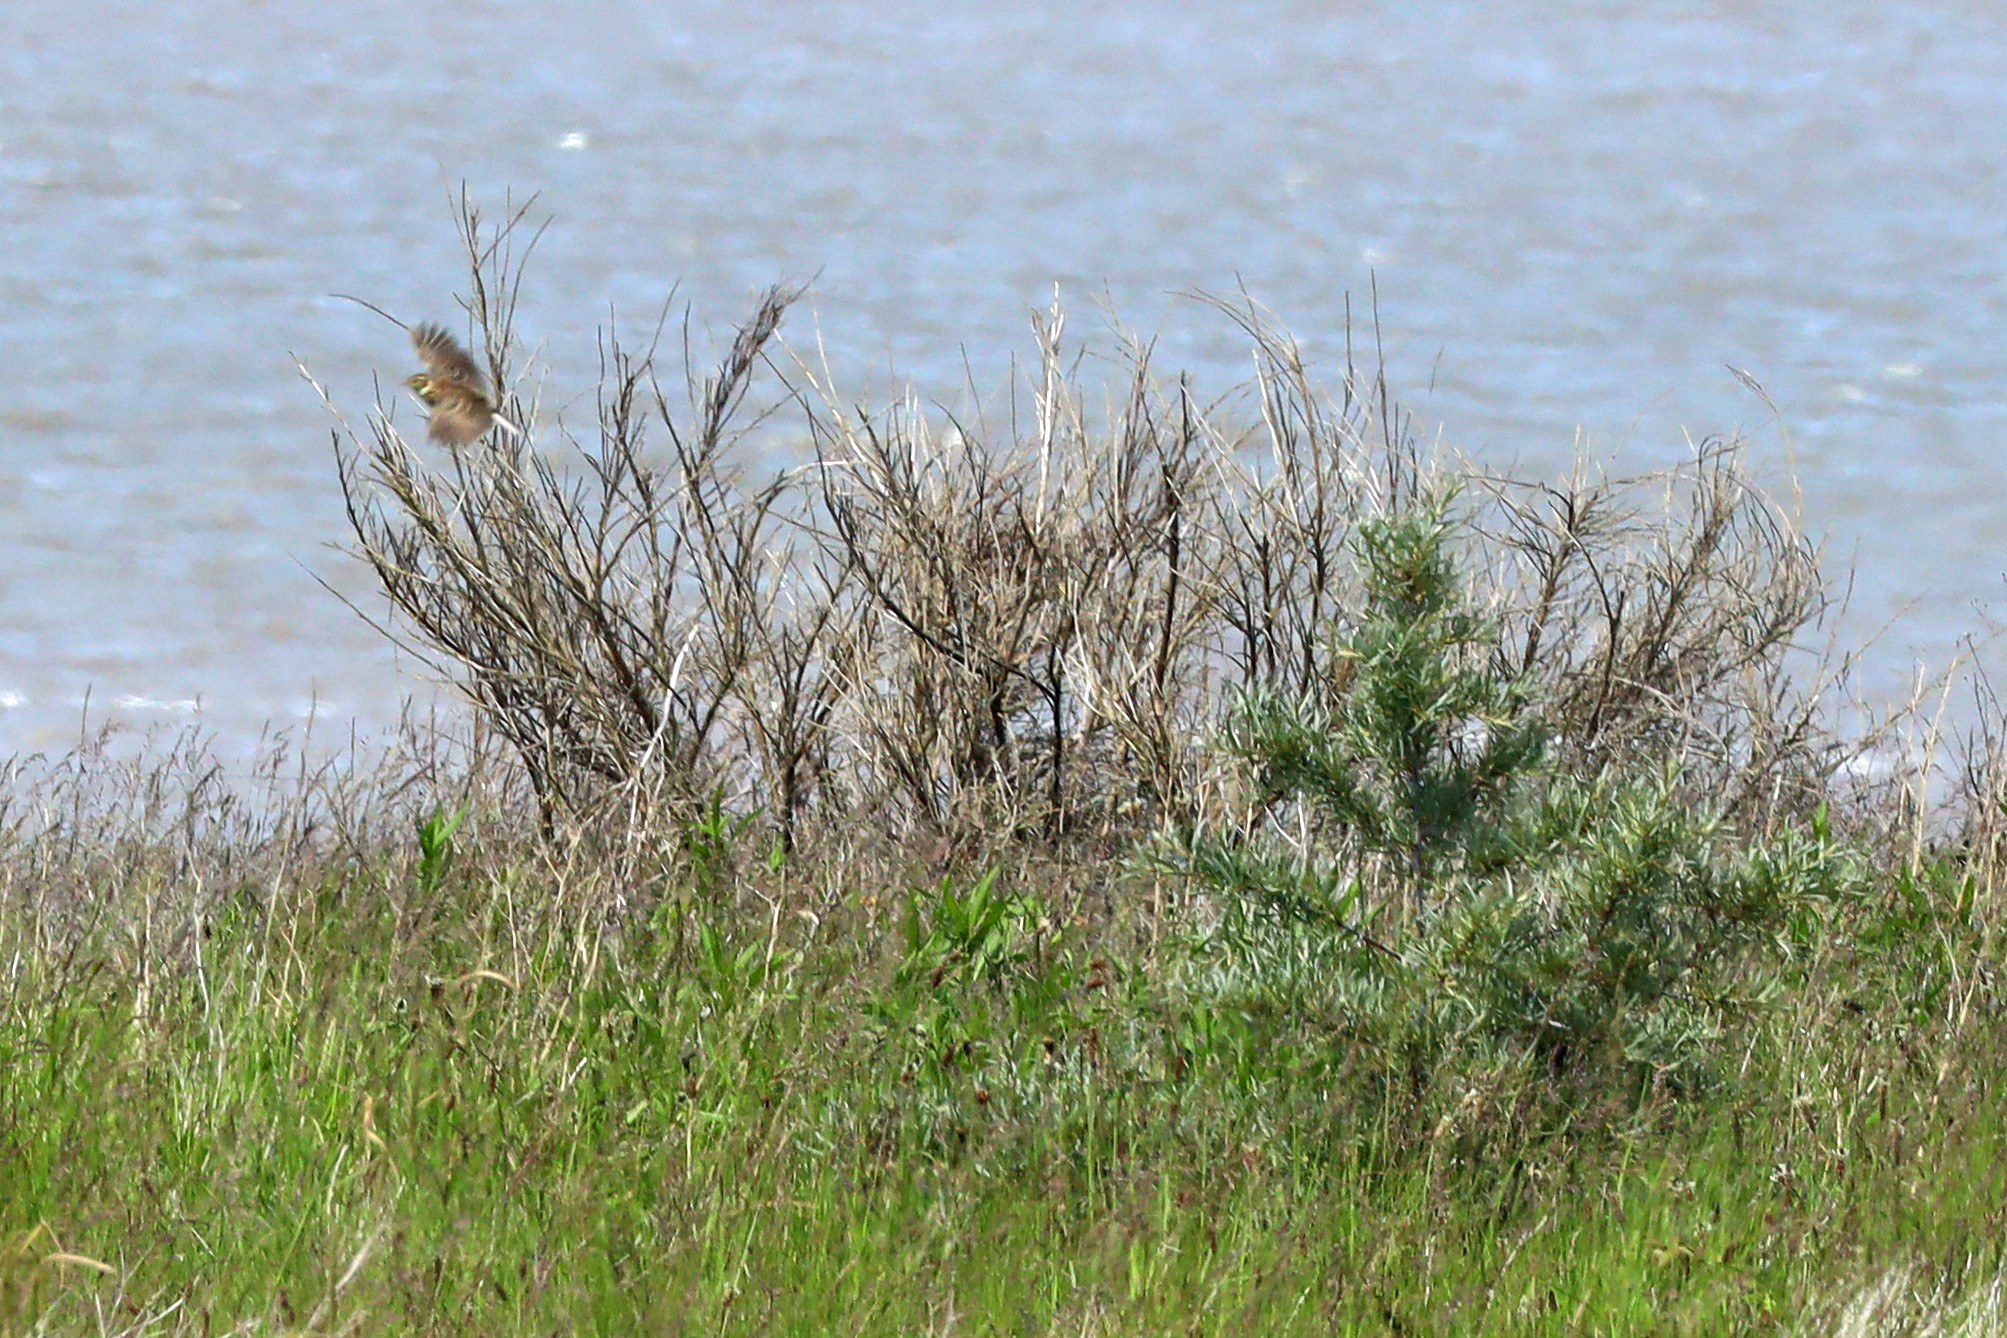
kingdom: Animalia
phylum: Chordata
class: Aves
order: Passeriformes
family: Alaudidae
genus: Alauda
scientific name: Alauda arvensis
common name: Eurasian skylark
